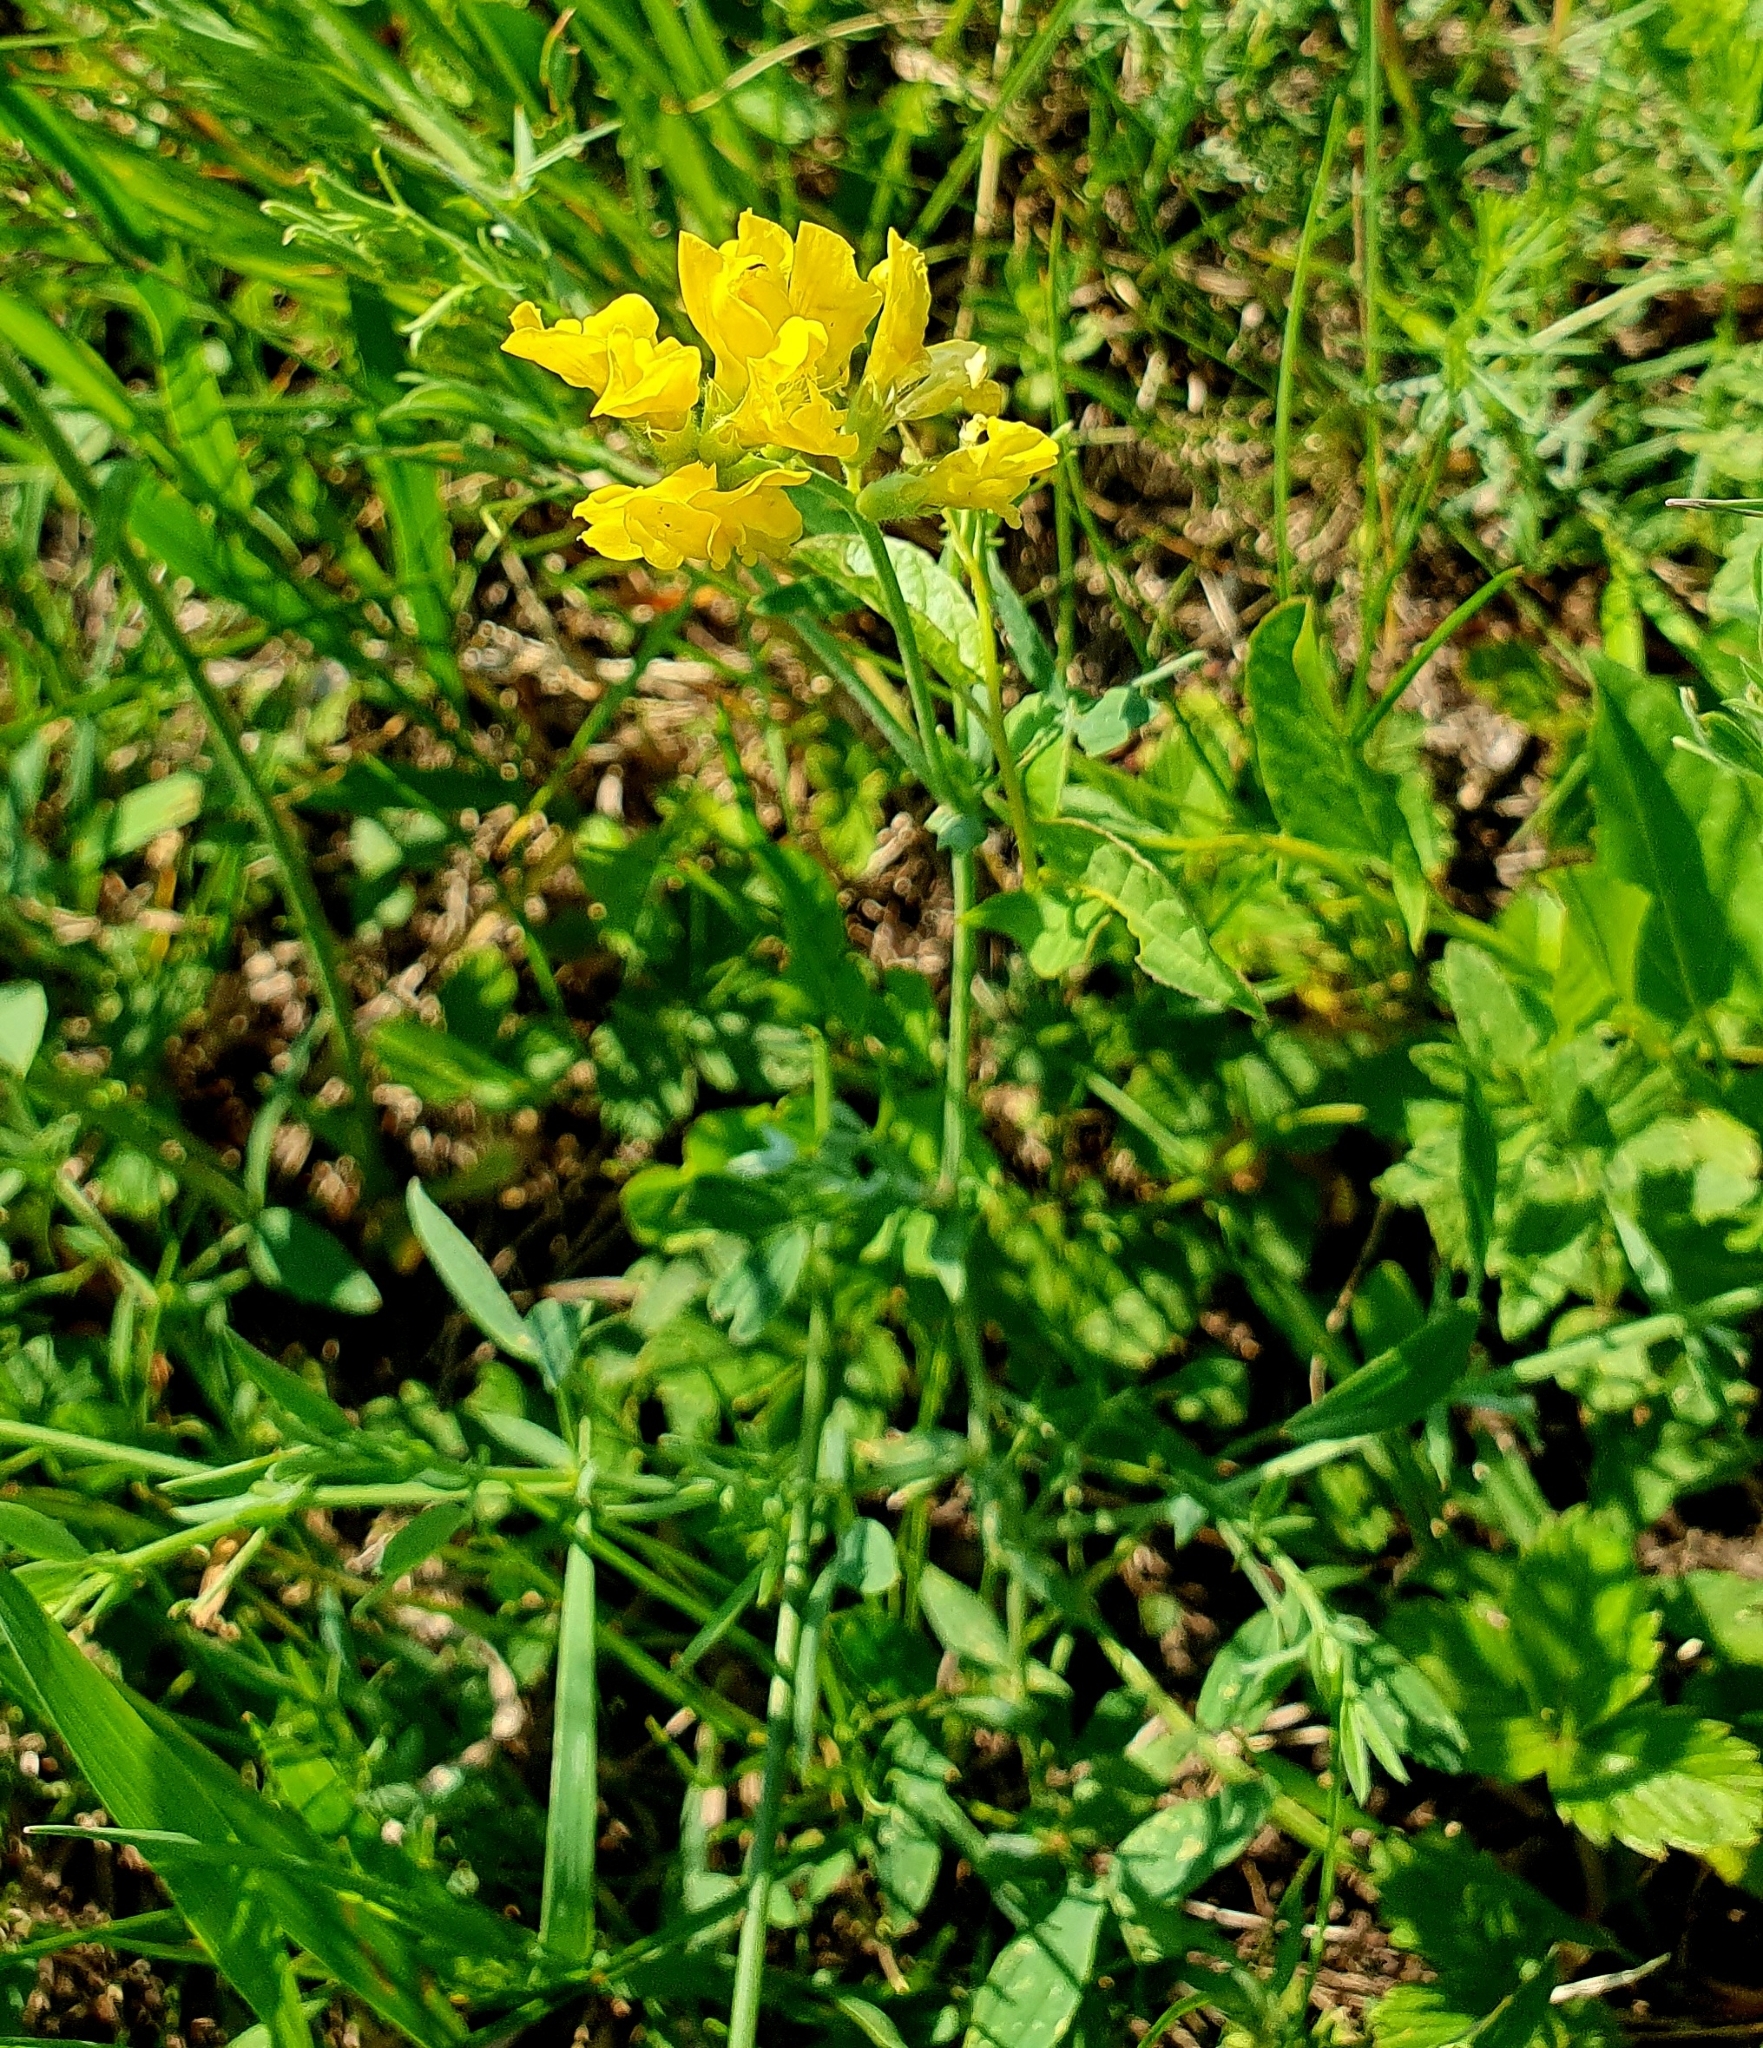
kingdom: Plantae
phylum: Tracheophyta
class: Magnoliopsida
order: Fabales
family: Fabaceae
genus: Lathyrus
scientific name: Lathyrus pratensis
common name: Meadow vetchling
